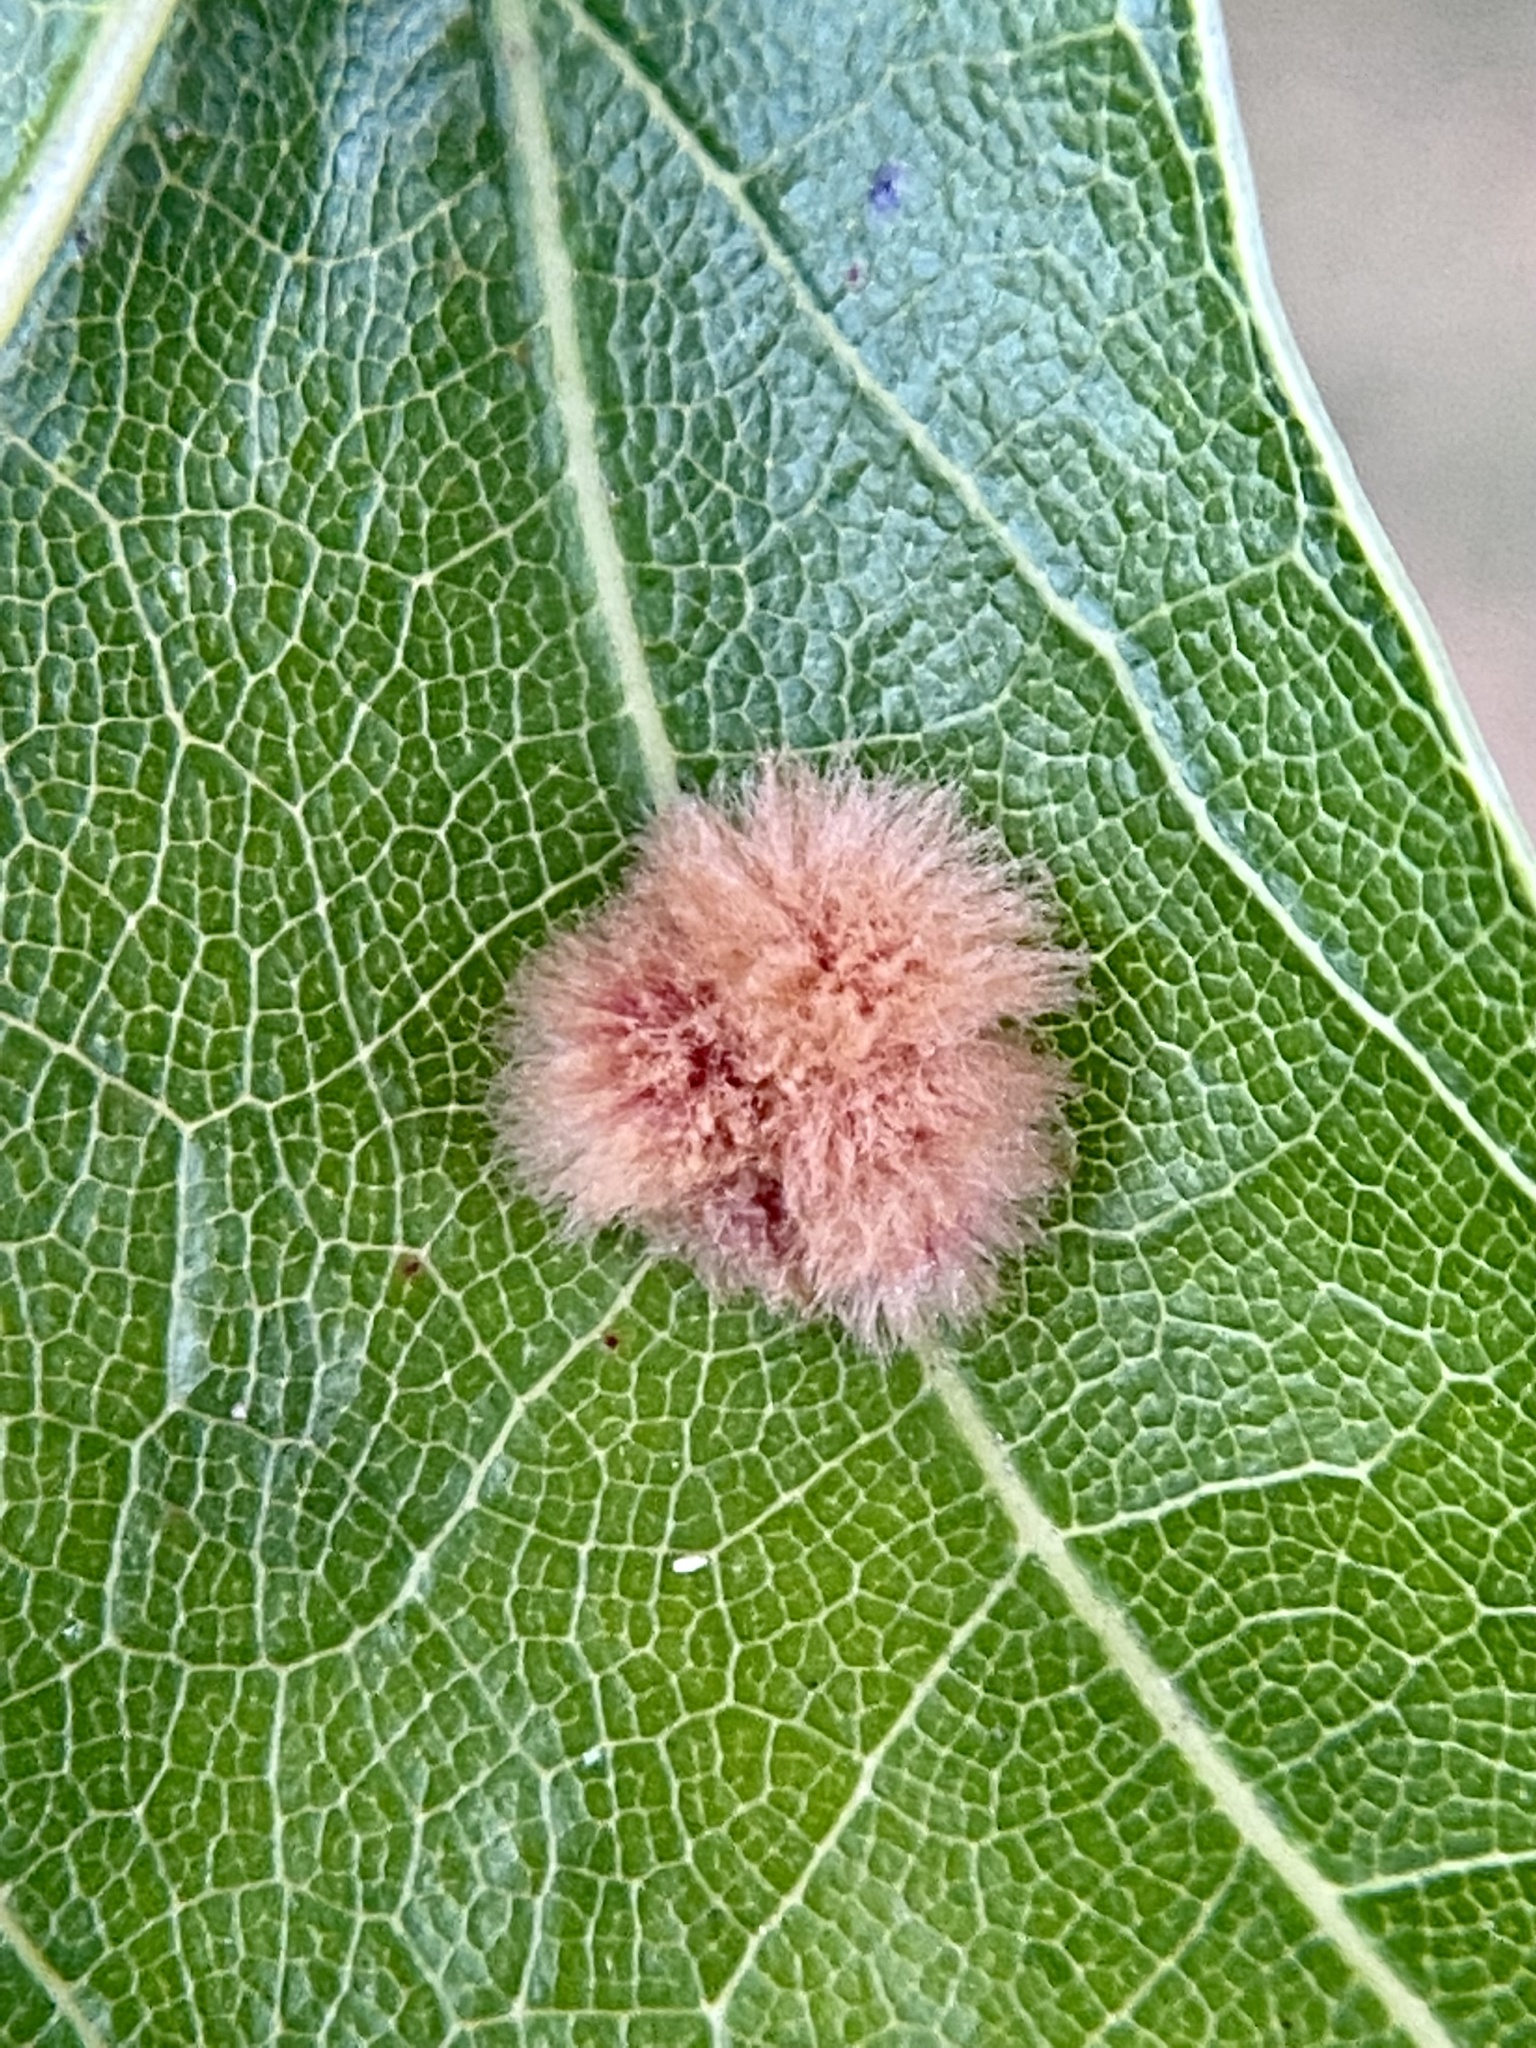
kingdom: Animalia
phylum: Arthropoda
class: Insecta
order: Hymenoptera
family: Cynipidae
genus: Callirhytis
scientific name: Callirhytis
